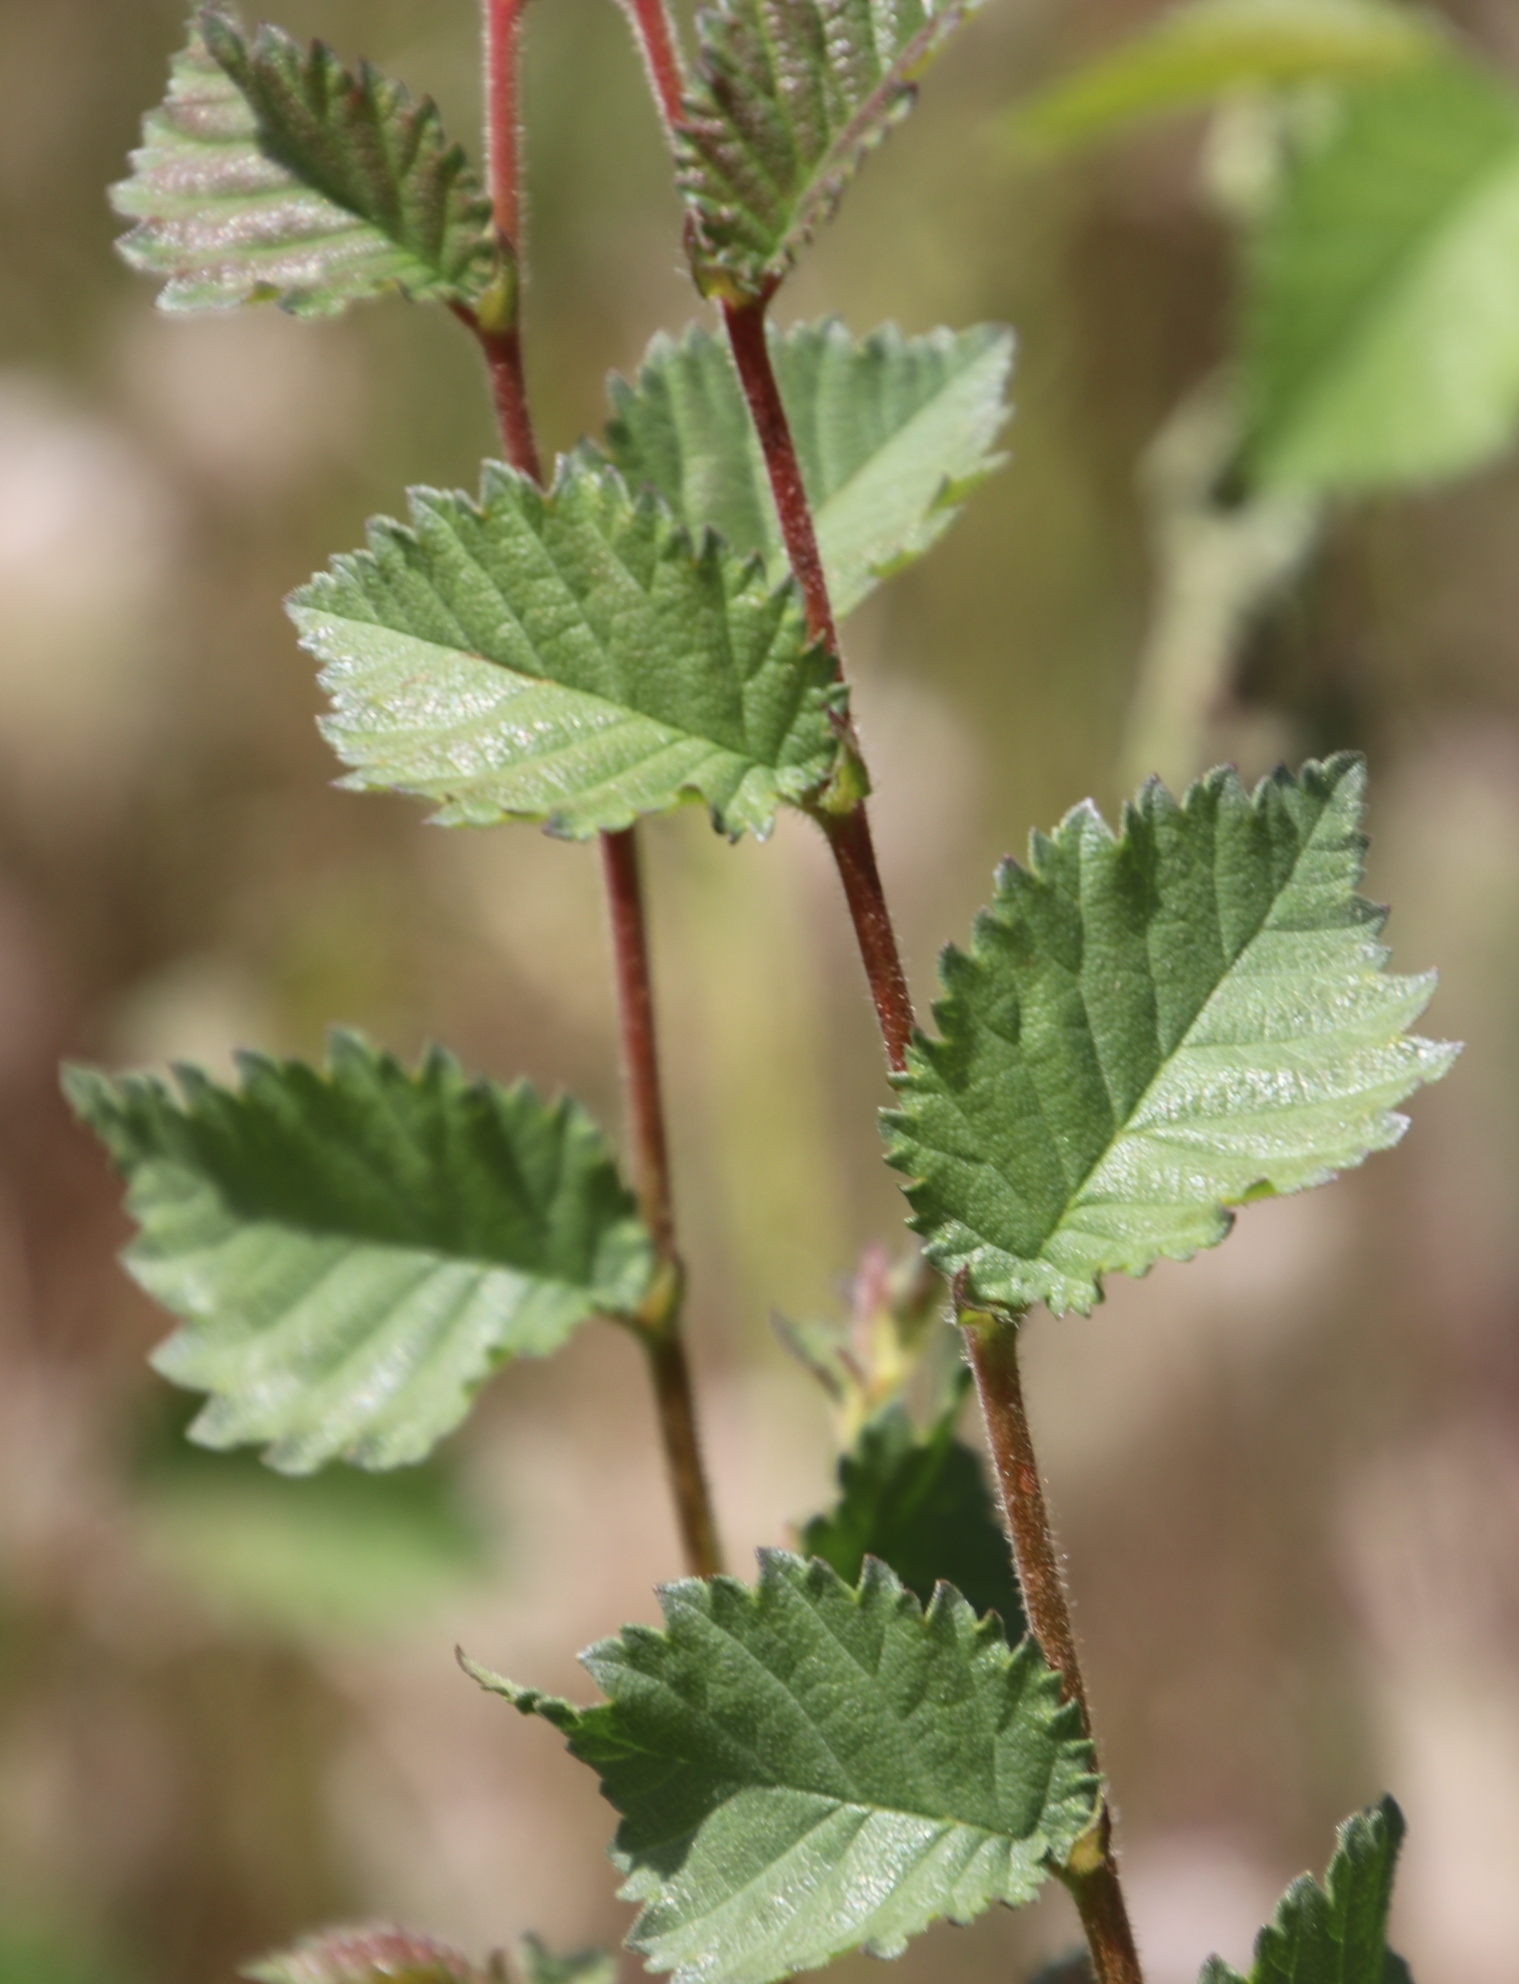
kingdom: Plantae
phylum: Tracheophyta
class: Magnoliopsida
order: Rosales
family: Ulmaceae
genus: Ulmus
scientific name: Ulmus minor
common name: Small-leaved elm
